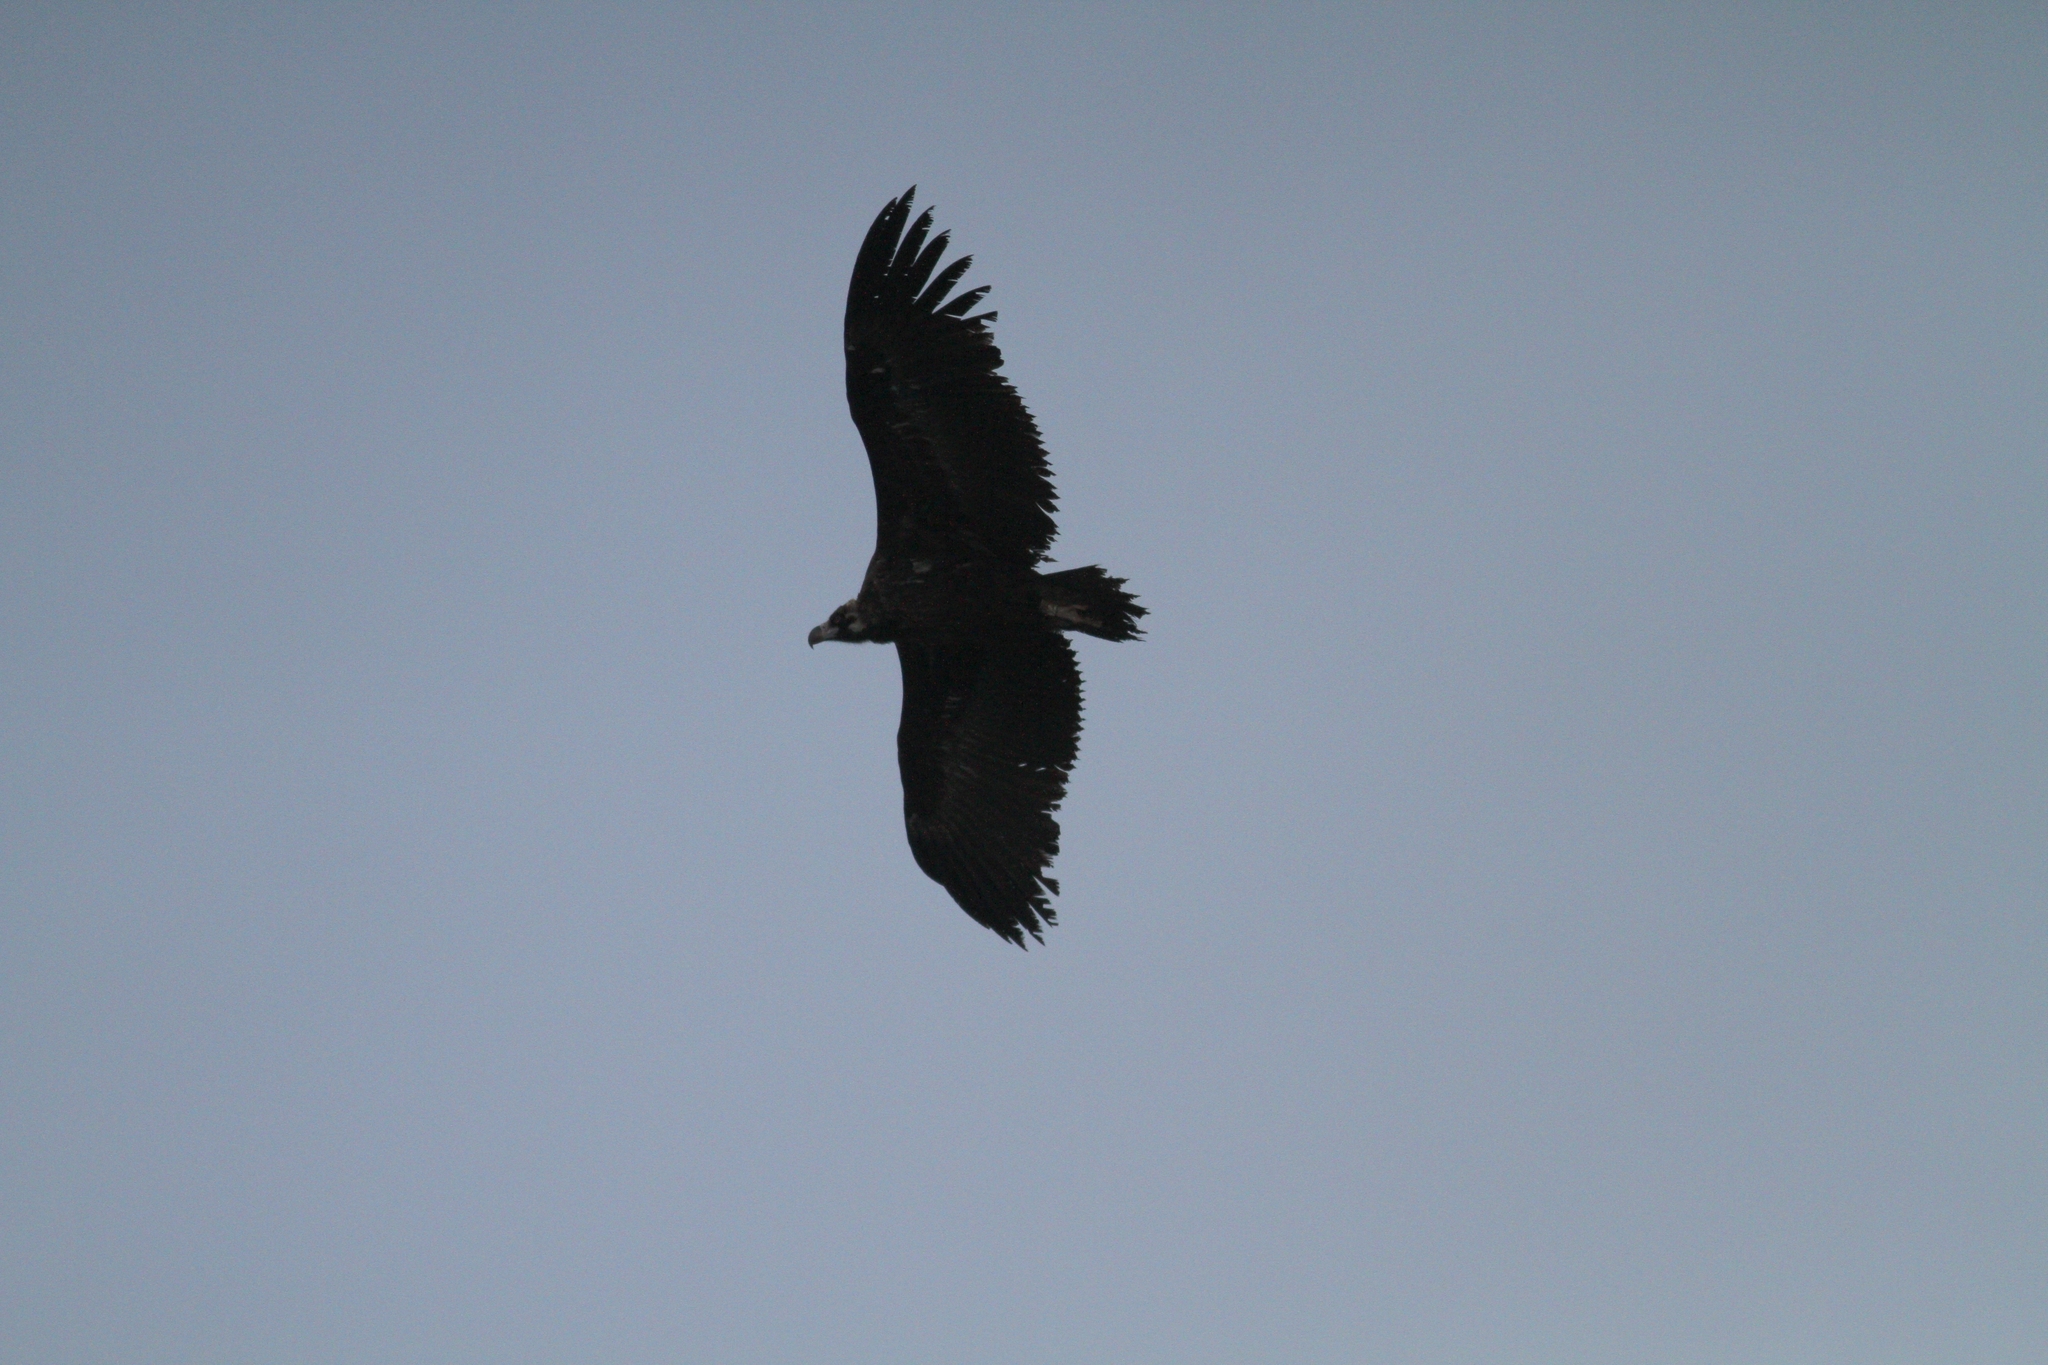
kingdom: Animalia
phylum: Chordata
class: Aves
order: Accipitriformes
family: Accipitridae
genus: Aegypius
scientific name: Aegypius monachus
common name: Cinereous vulture
